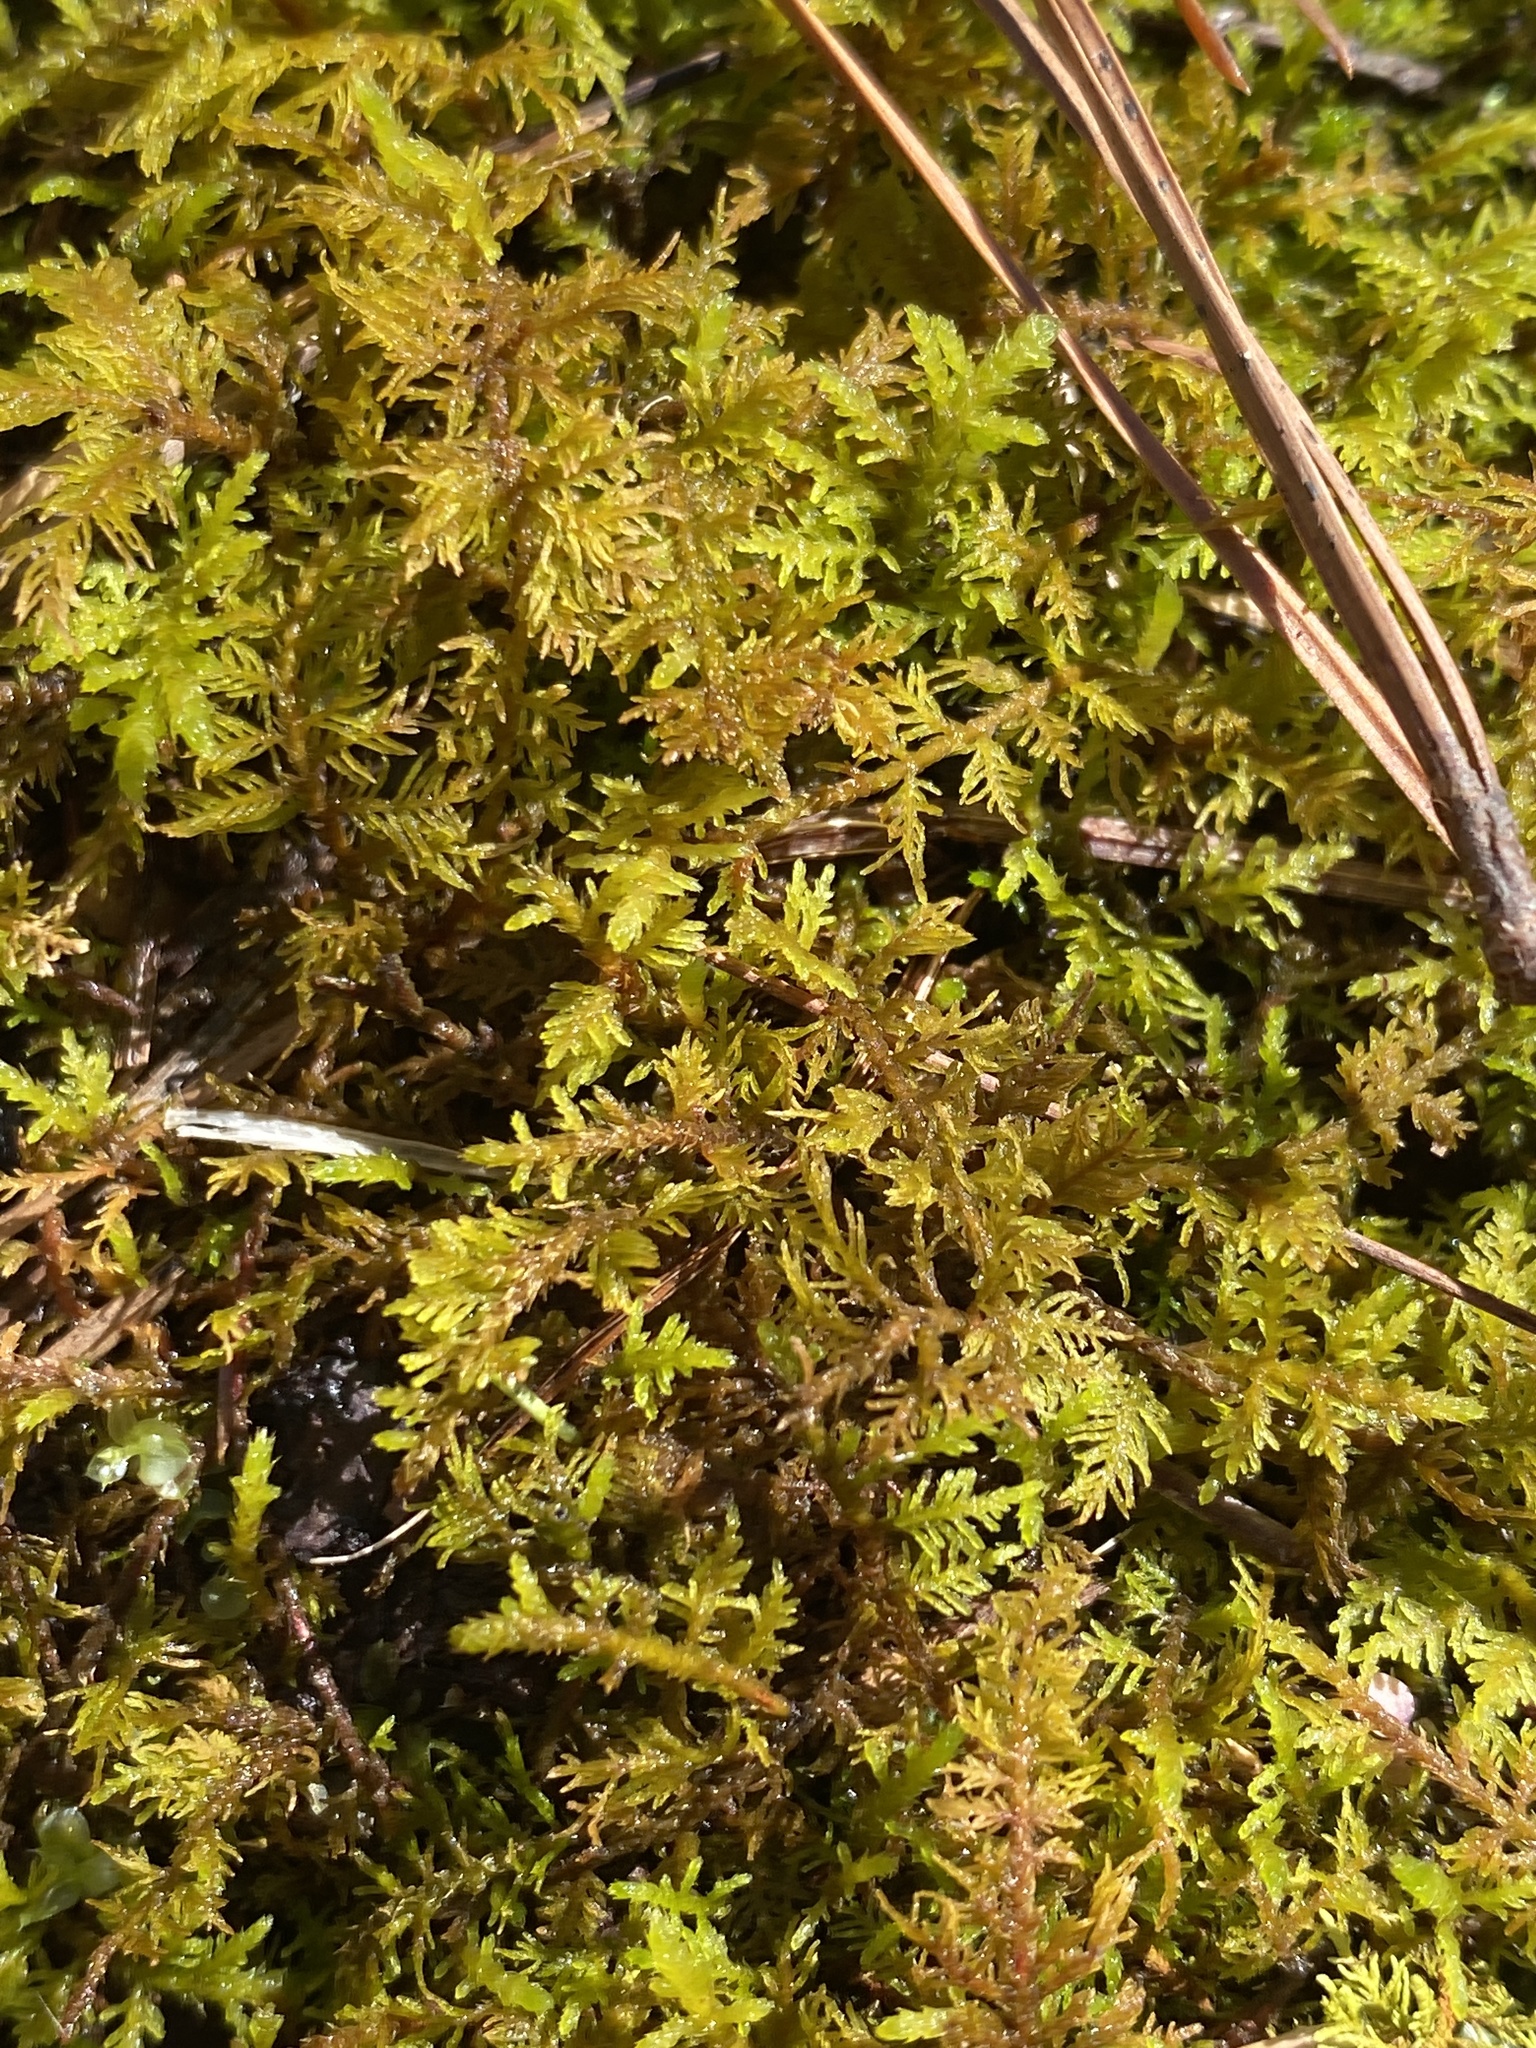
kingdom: Plantae
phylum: Bryophyta
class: Bryopsida
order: Hypnales
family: Thuidiaceae
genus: Thuidium
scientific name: Thuidium delicatulum
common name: Delicate fern moss
